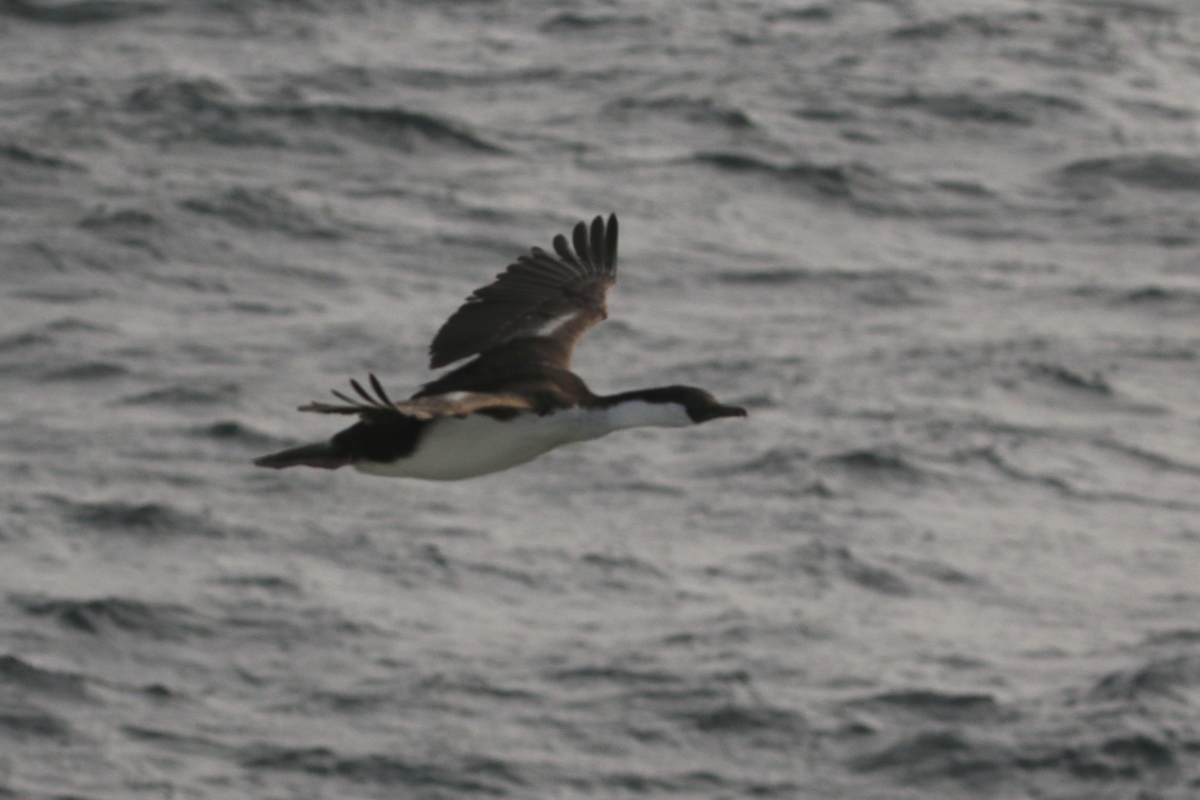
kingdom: Animalia
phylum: Chordata
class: Aves
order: Suliformes
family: Phalacrocoracidae
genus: Leucocarbo
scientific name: Leucocarbo atriceps
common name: Imperial shag
